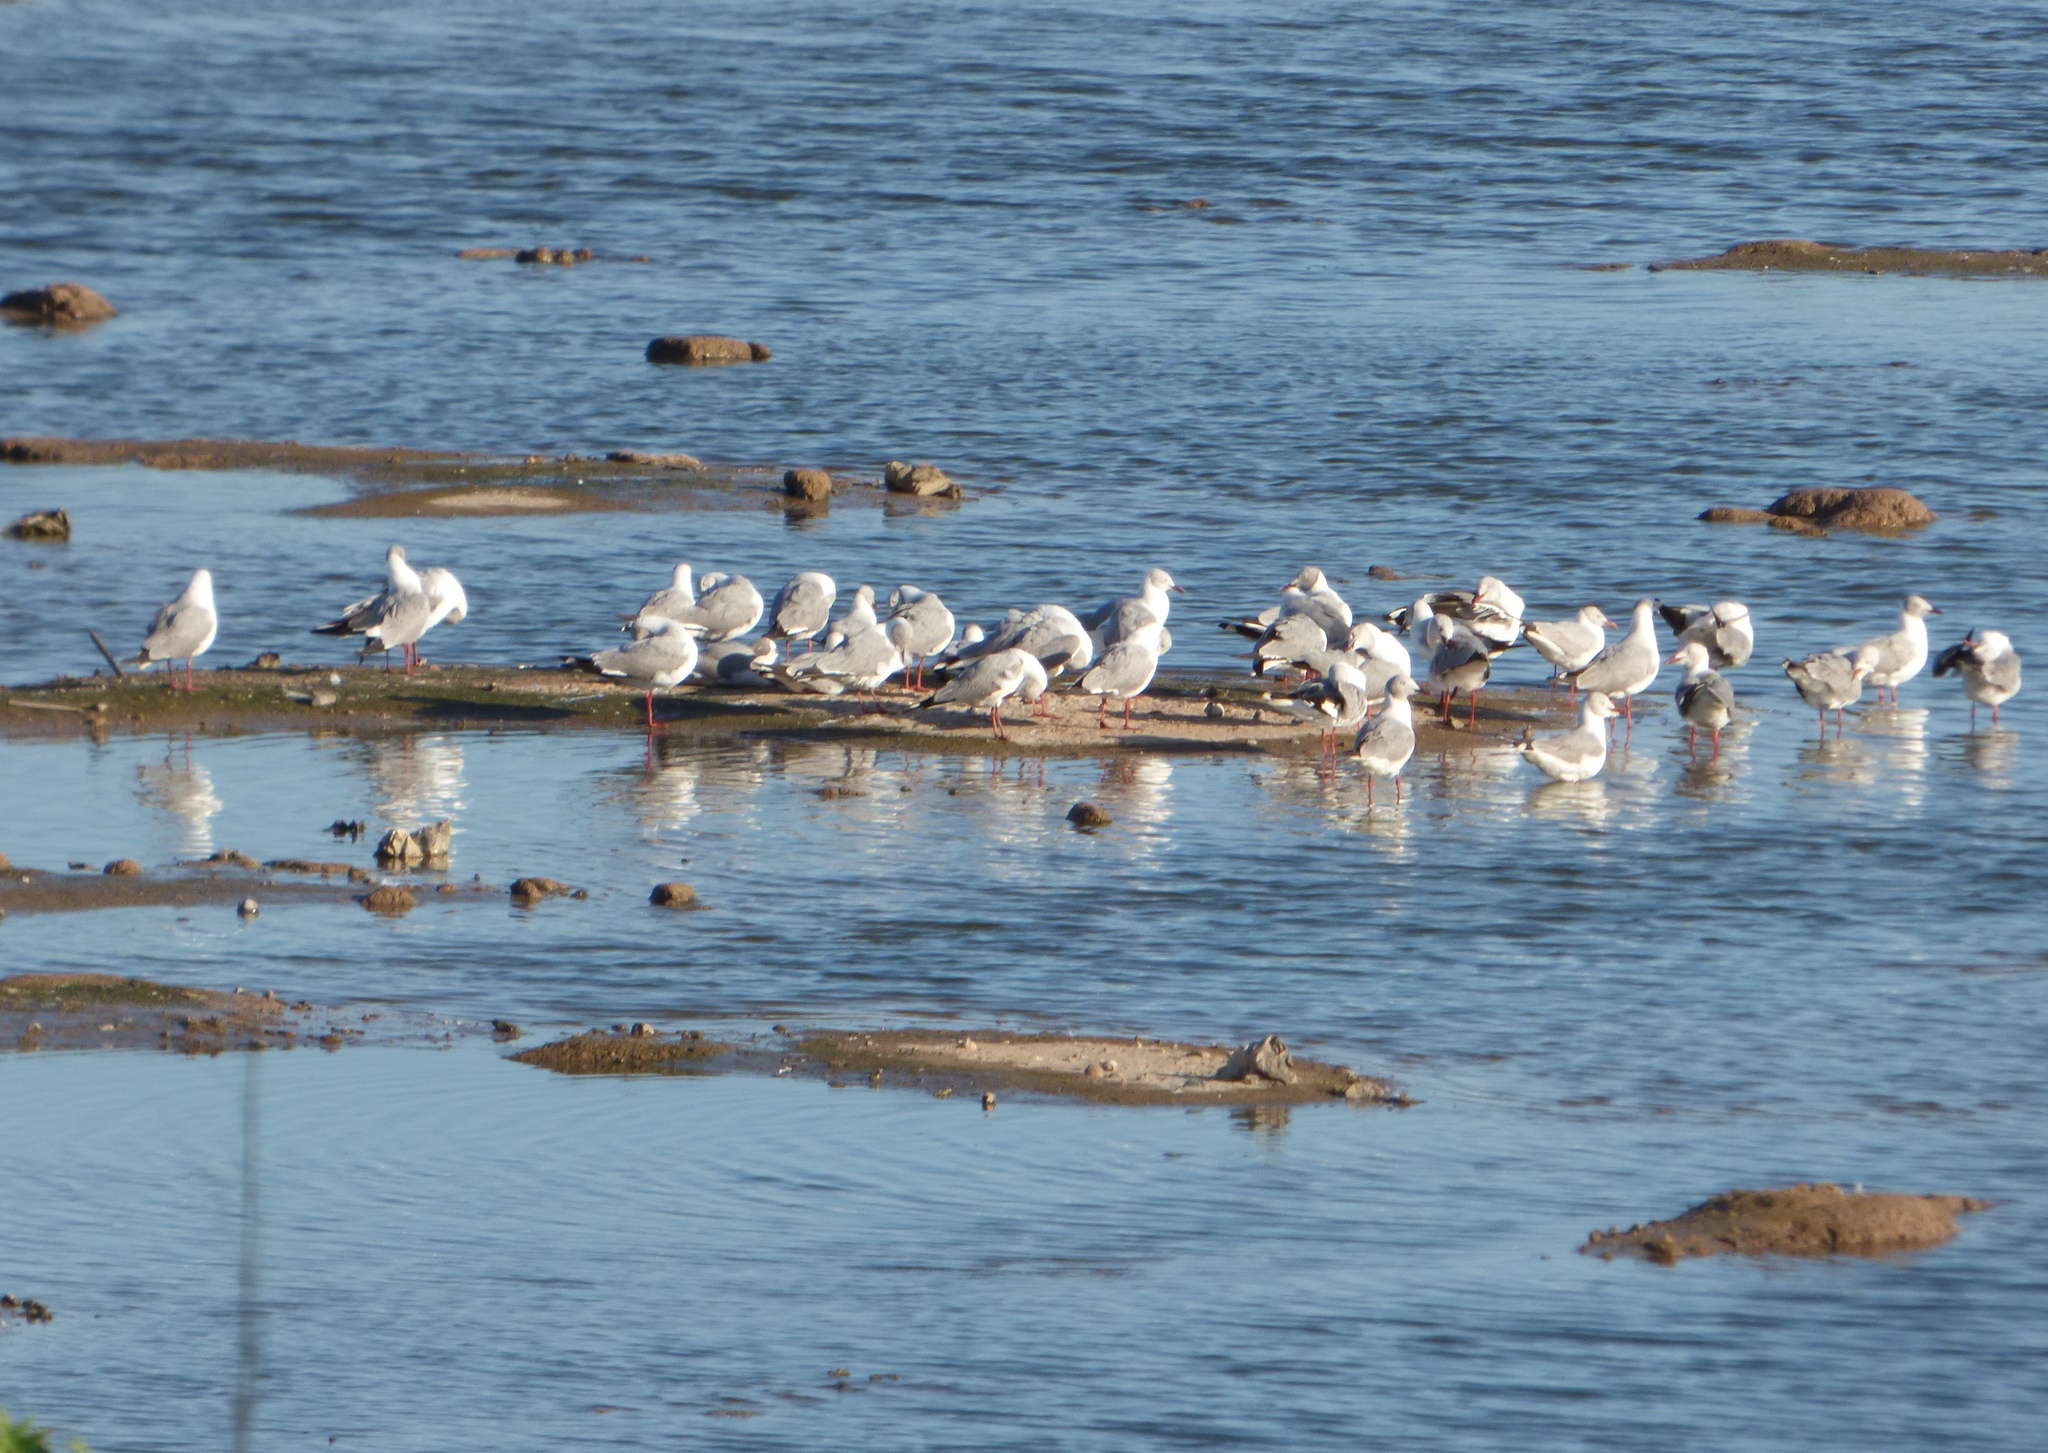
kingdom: Animalia
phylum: Chordata
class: Aves
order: Charadriiformes
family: Laridae
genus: Chroicocephalus
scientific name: Chroicocephalus cirrocephalus
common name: Grey-headed gull
